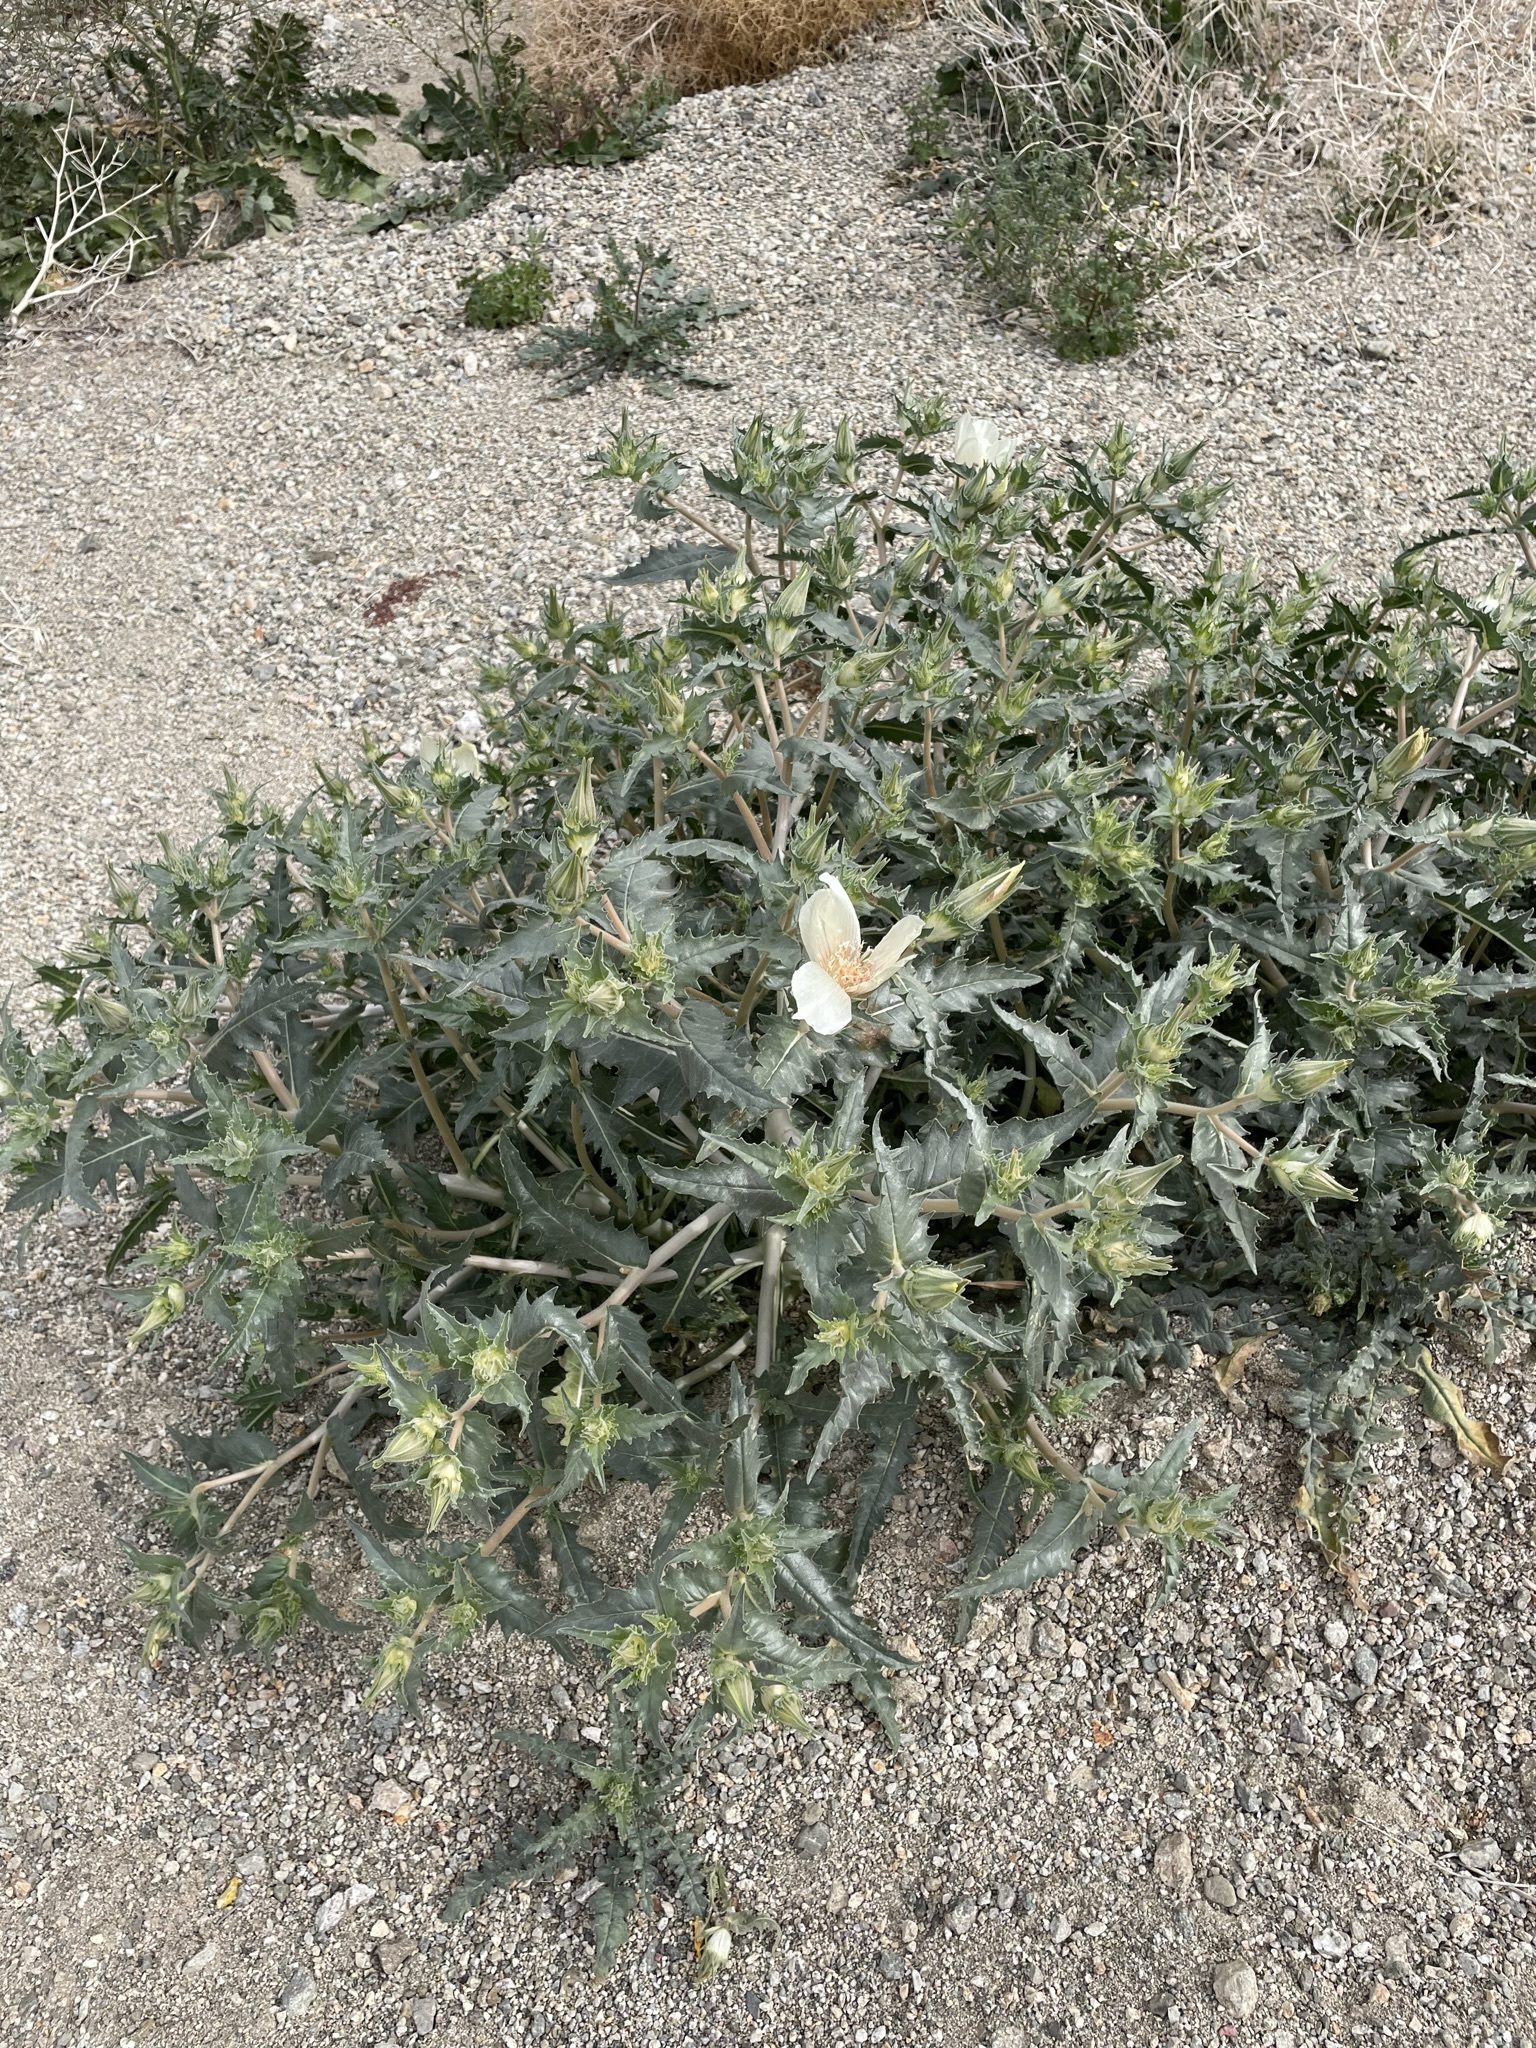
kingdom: Plantae
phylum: Tracheophyta
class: Magnoliopsida
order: Cornales
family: Loasaceae
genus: Mentzelia
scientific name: Mentzelia involucrata
